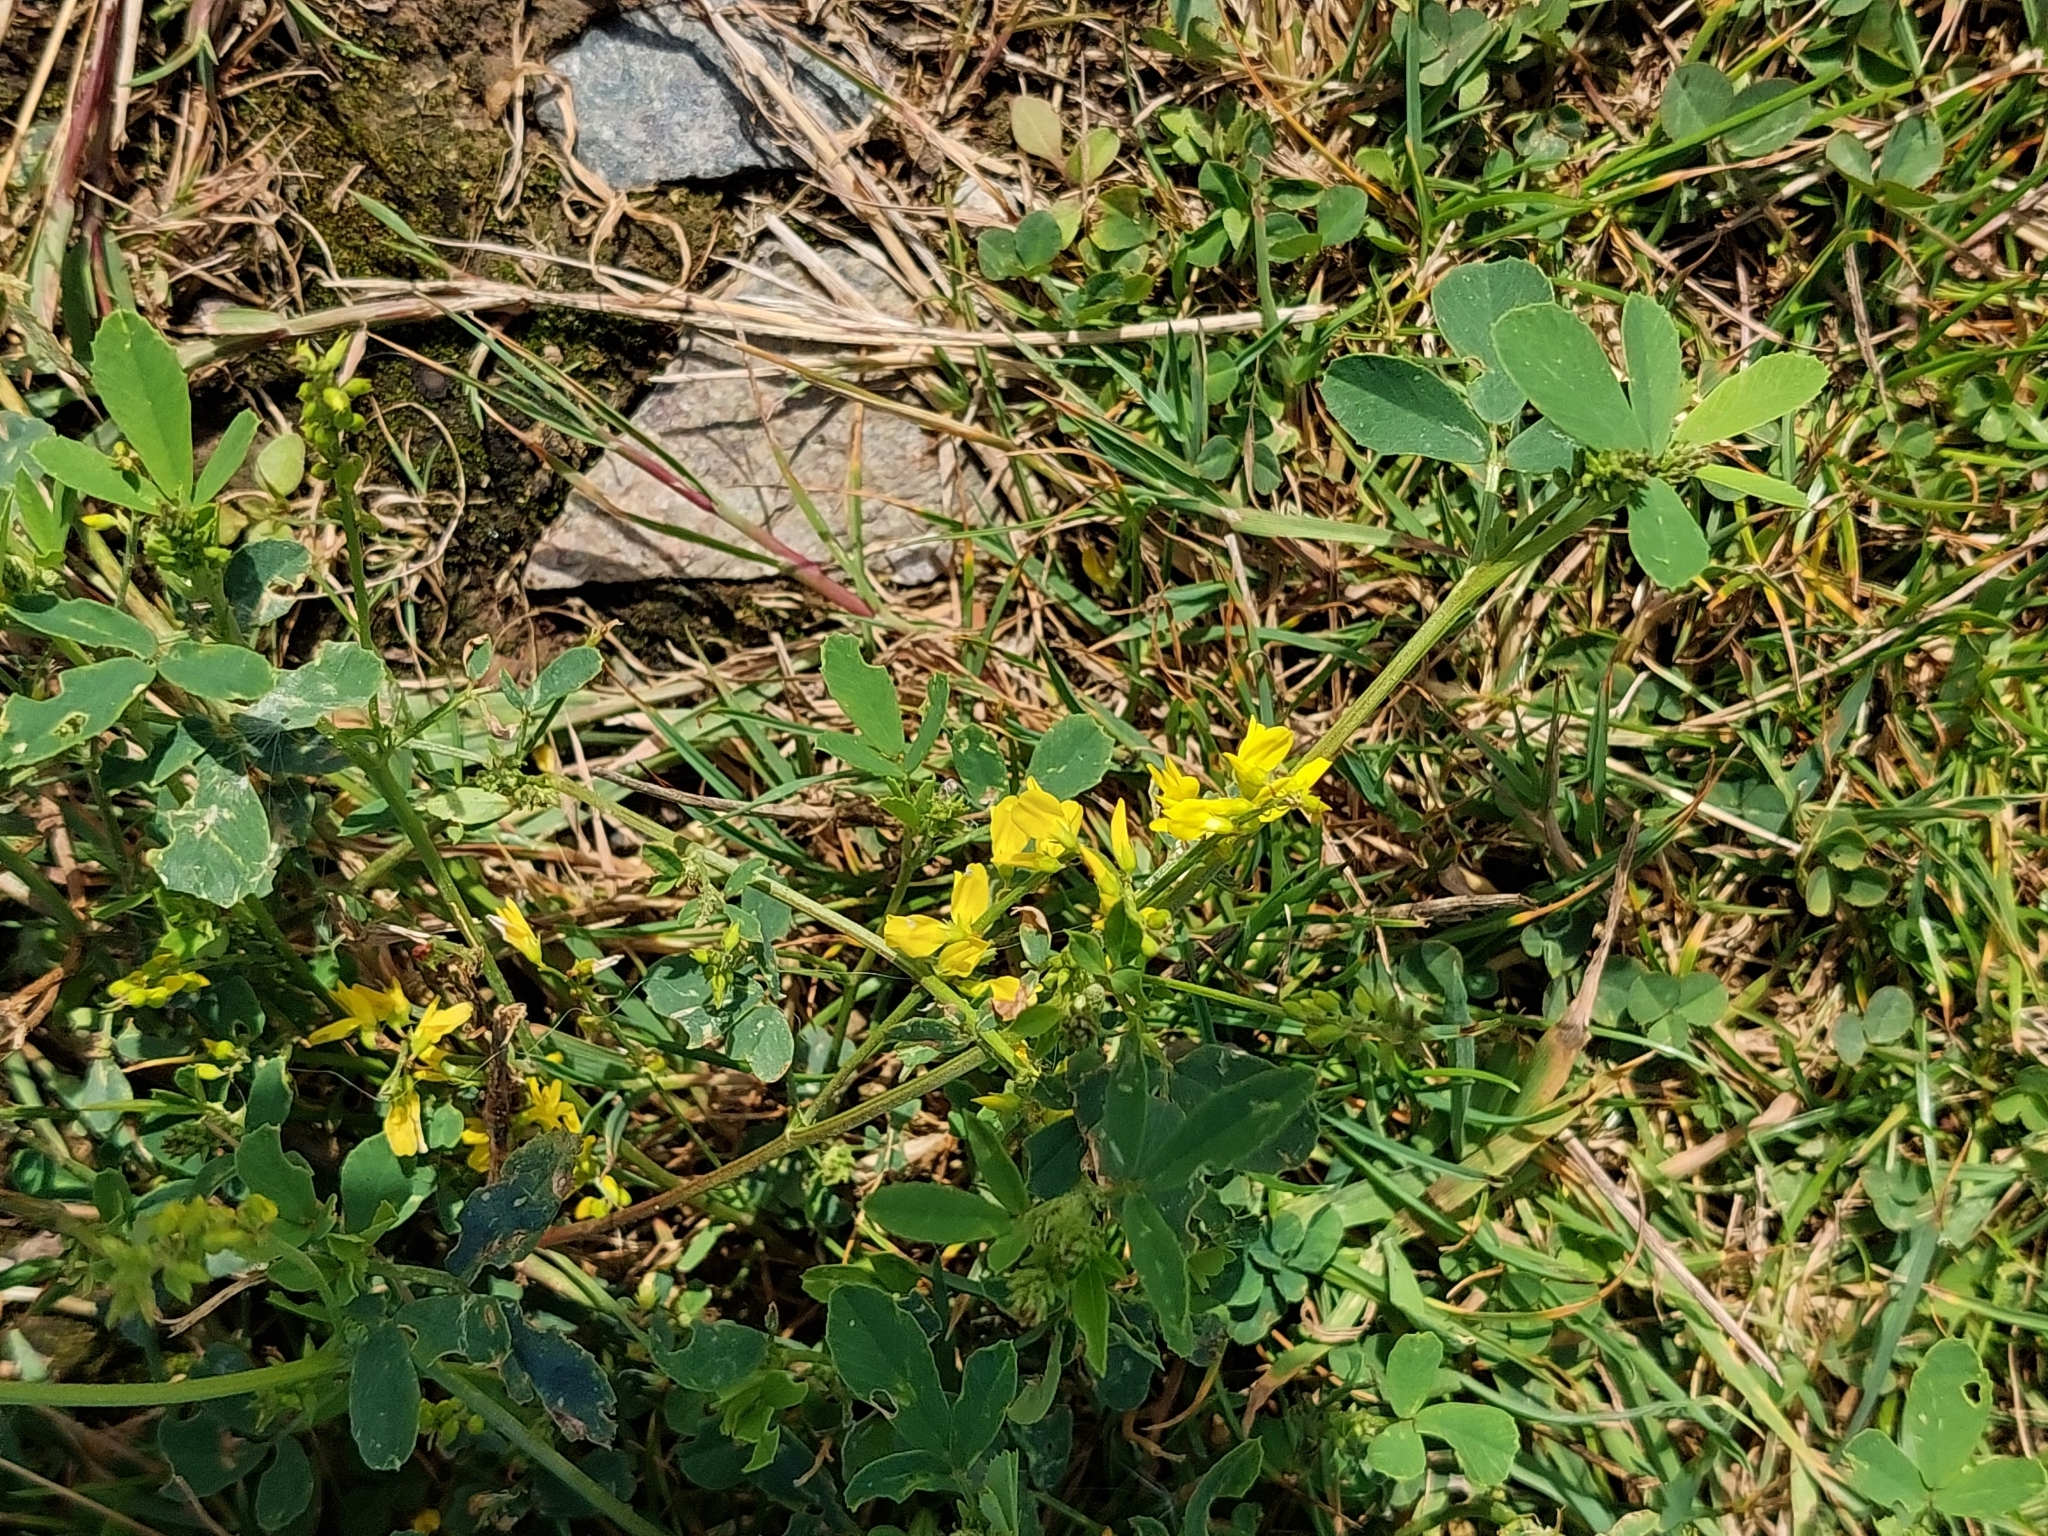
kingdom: Plantae
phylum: Tracheophyta
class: Magnoliopsida
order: Fabales
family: Fabaceae
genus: Melilotus
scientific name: Melilotus officinalis
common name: Sweetclover
